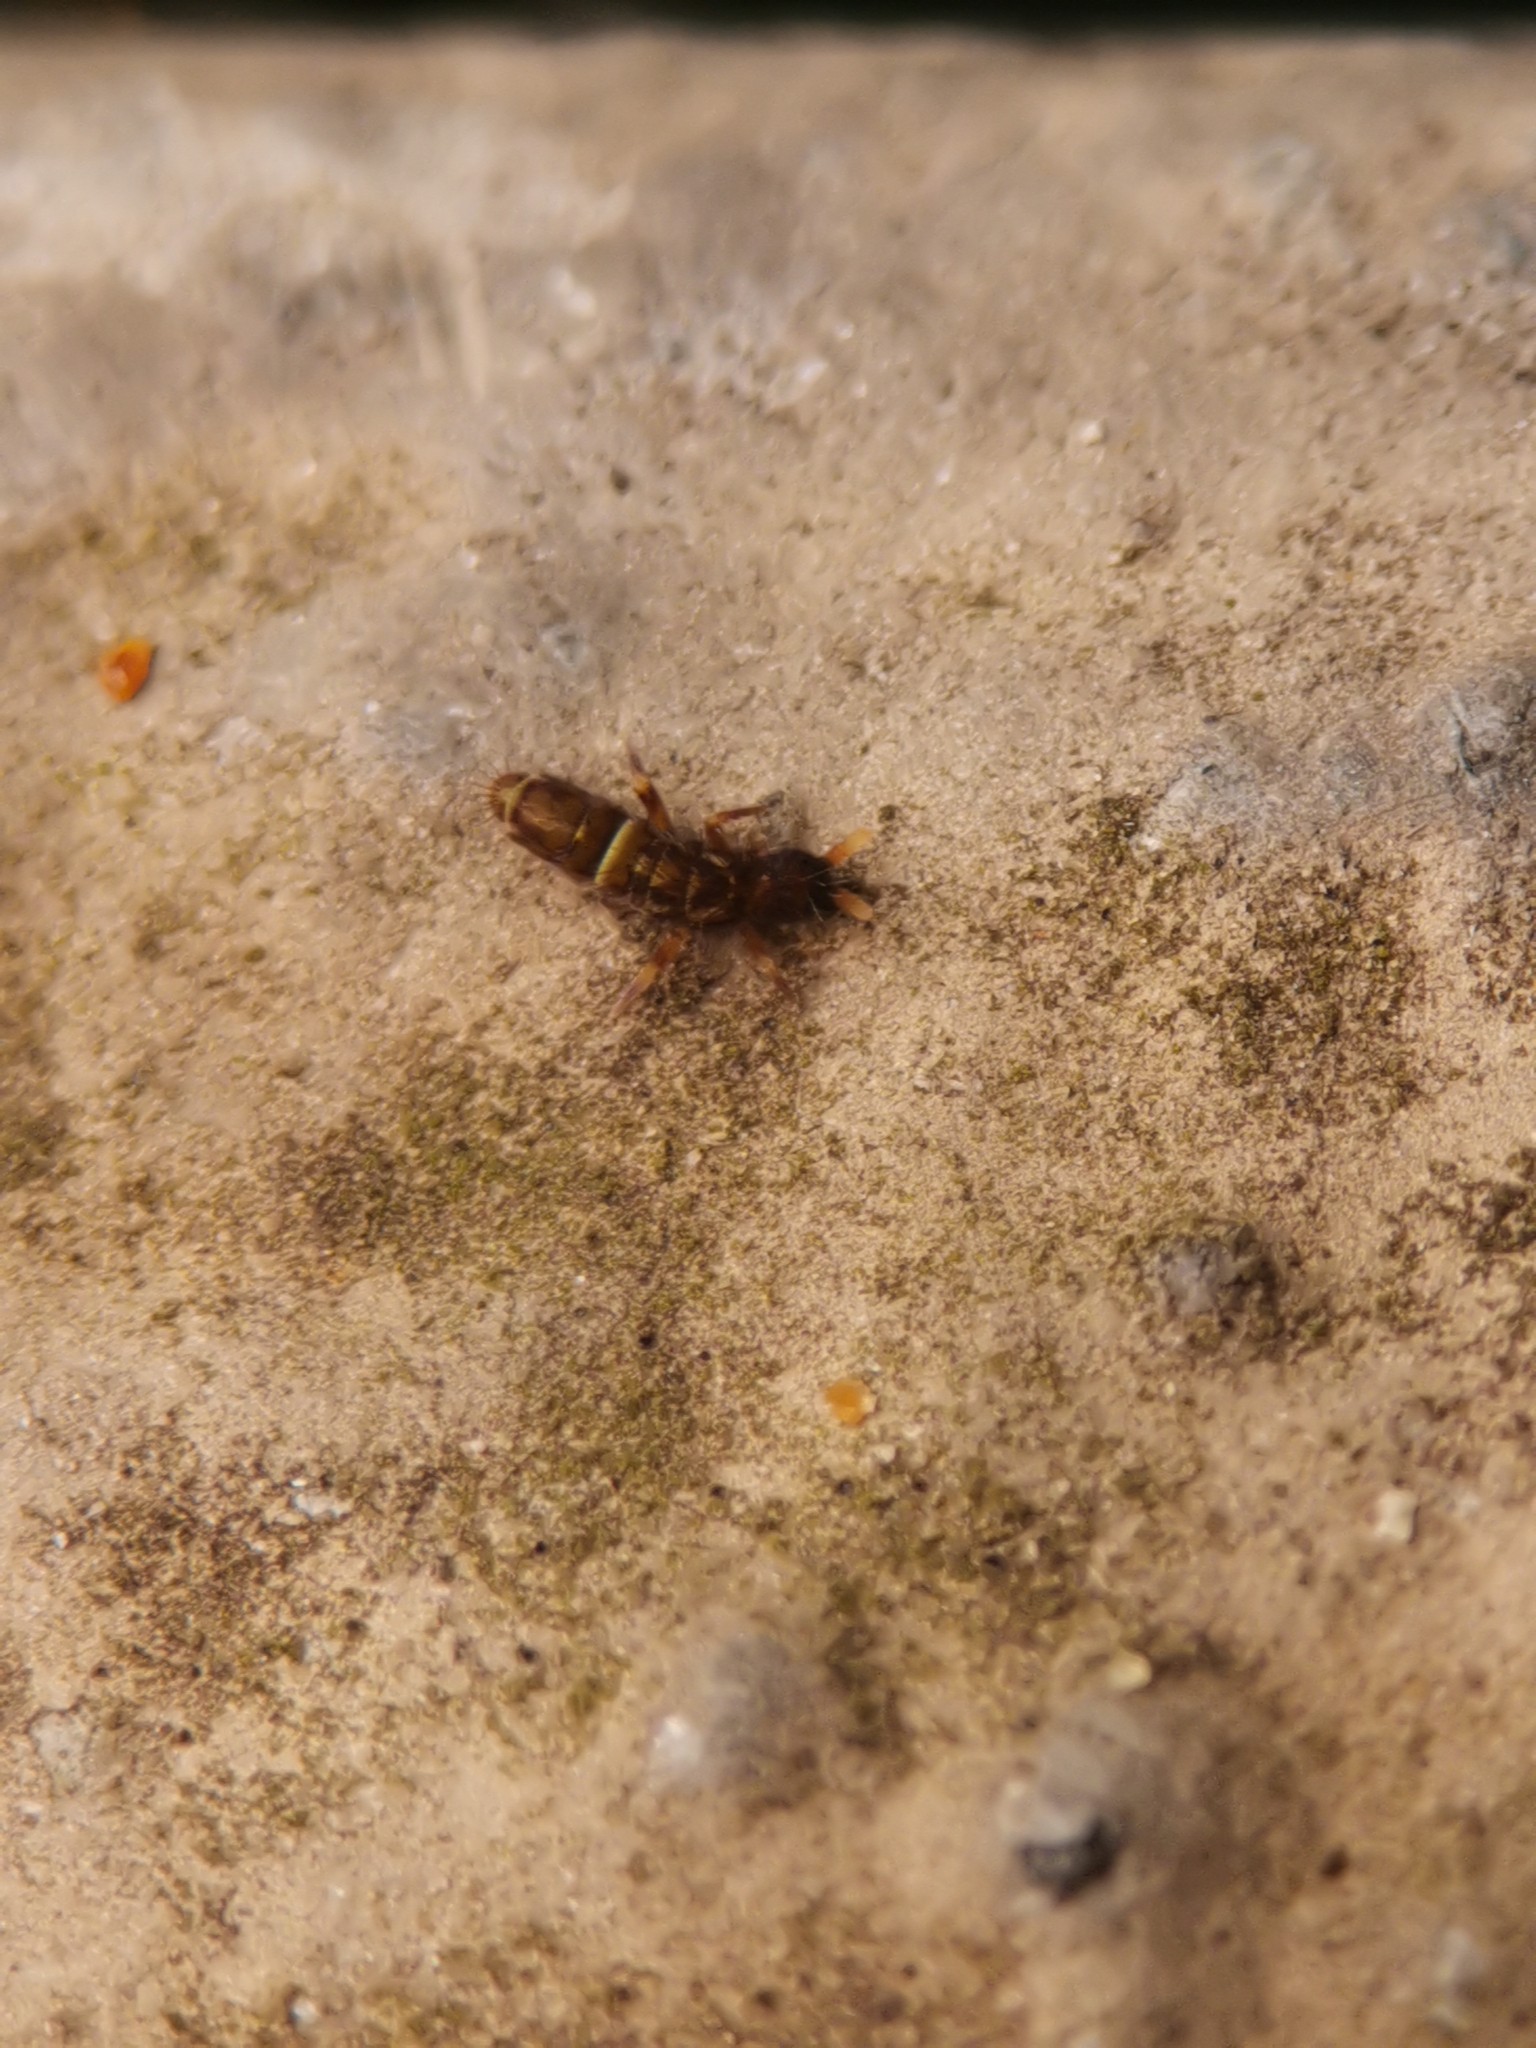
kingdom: Animalia
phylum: Arthropoda
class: Collembola
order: Entomobryomorpha
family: Orchesellidae
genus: Orchesella
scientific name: Orchesella cincta
